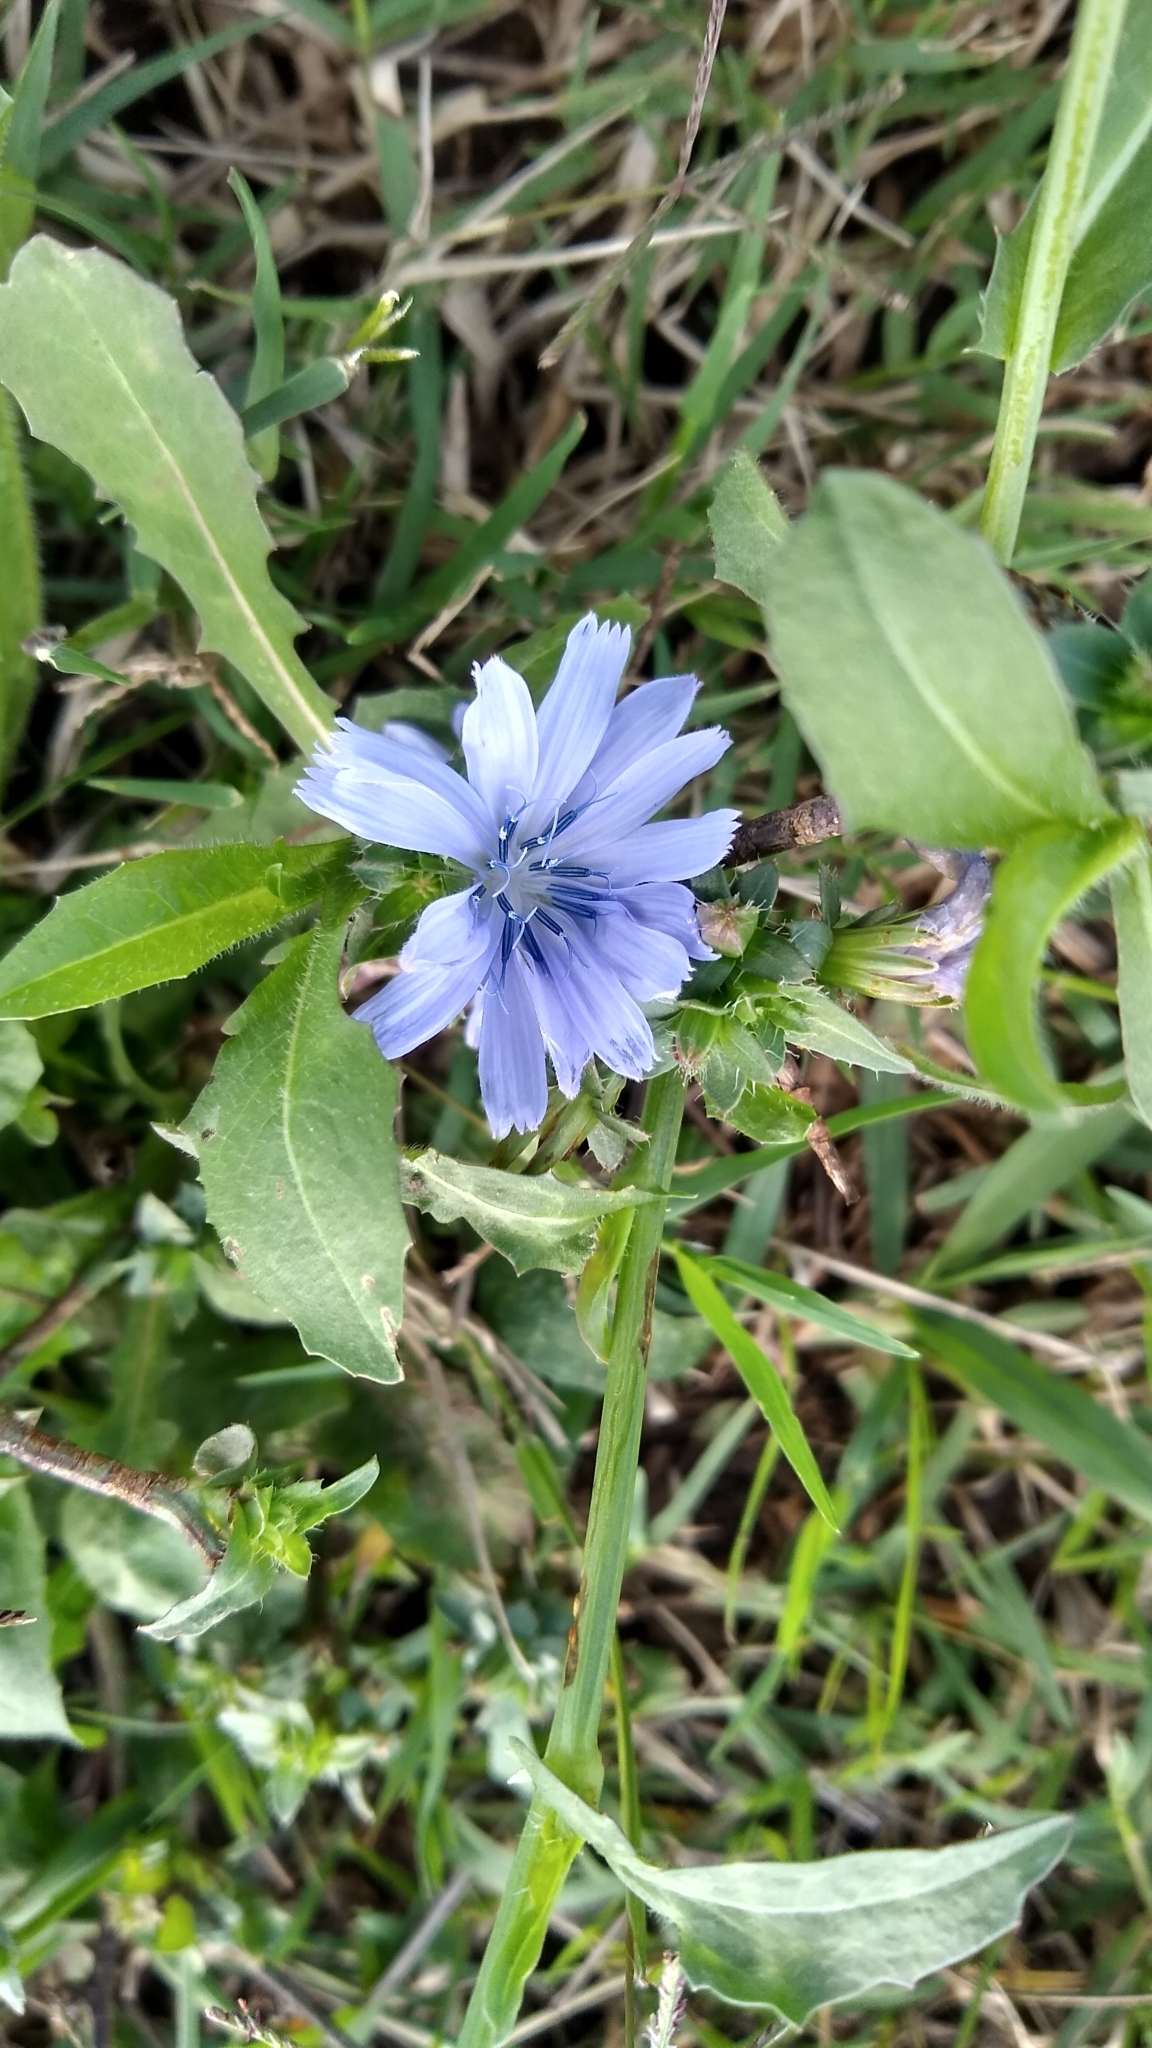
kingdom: Plantae
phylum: Tracheophyta
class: Magnoliopsida
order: Asterales
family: Asteraceae
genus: Cichorium
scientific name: Cichorium intybus
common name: Chicory
